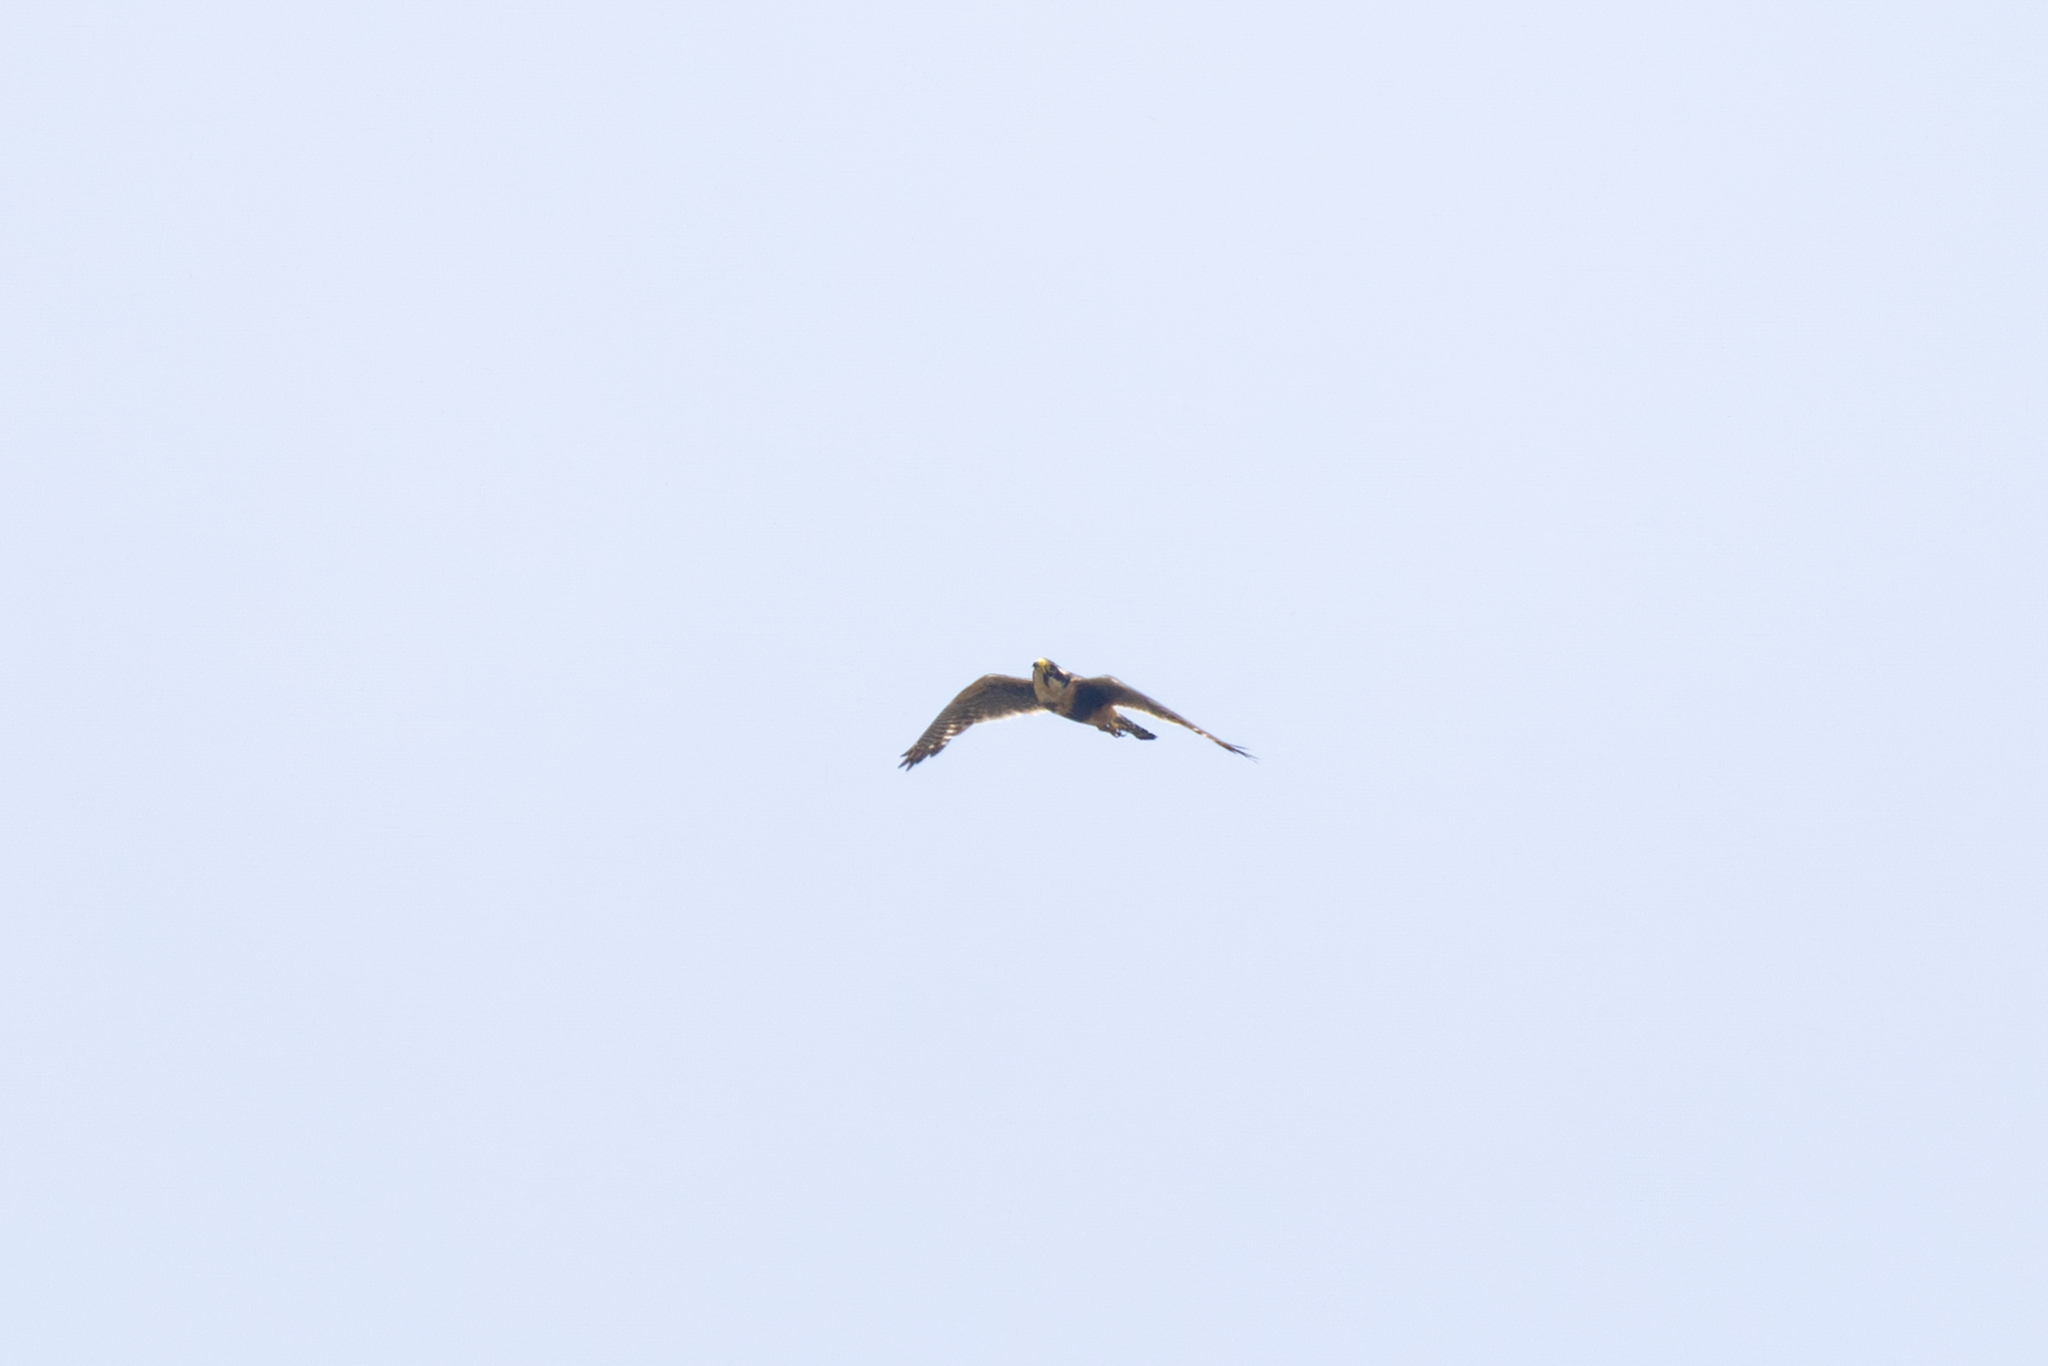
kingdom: Animalia
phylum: Chordata
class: Aves
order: Falconiformes
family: Falconidae
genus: Falco
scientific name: Falco femoralis
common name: Aplomado falcon
